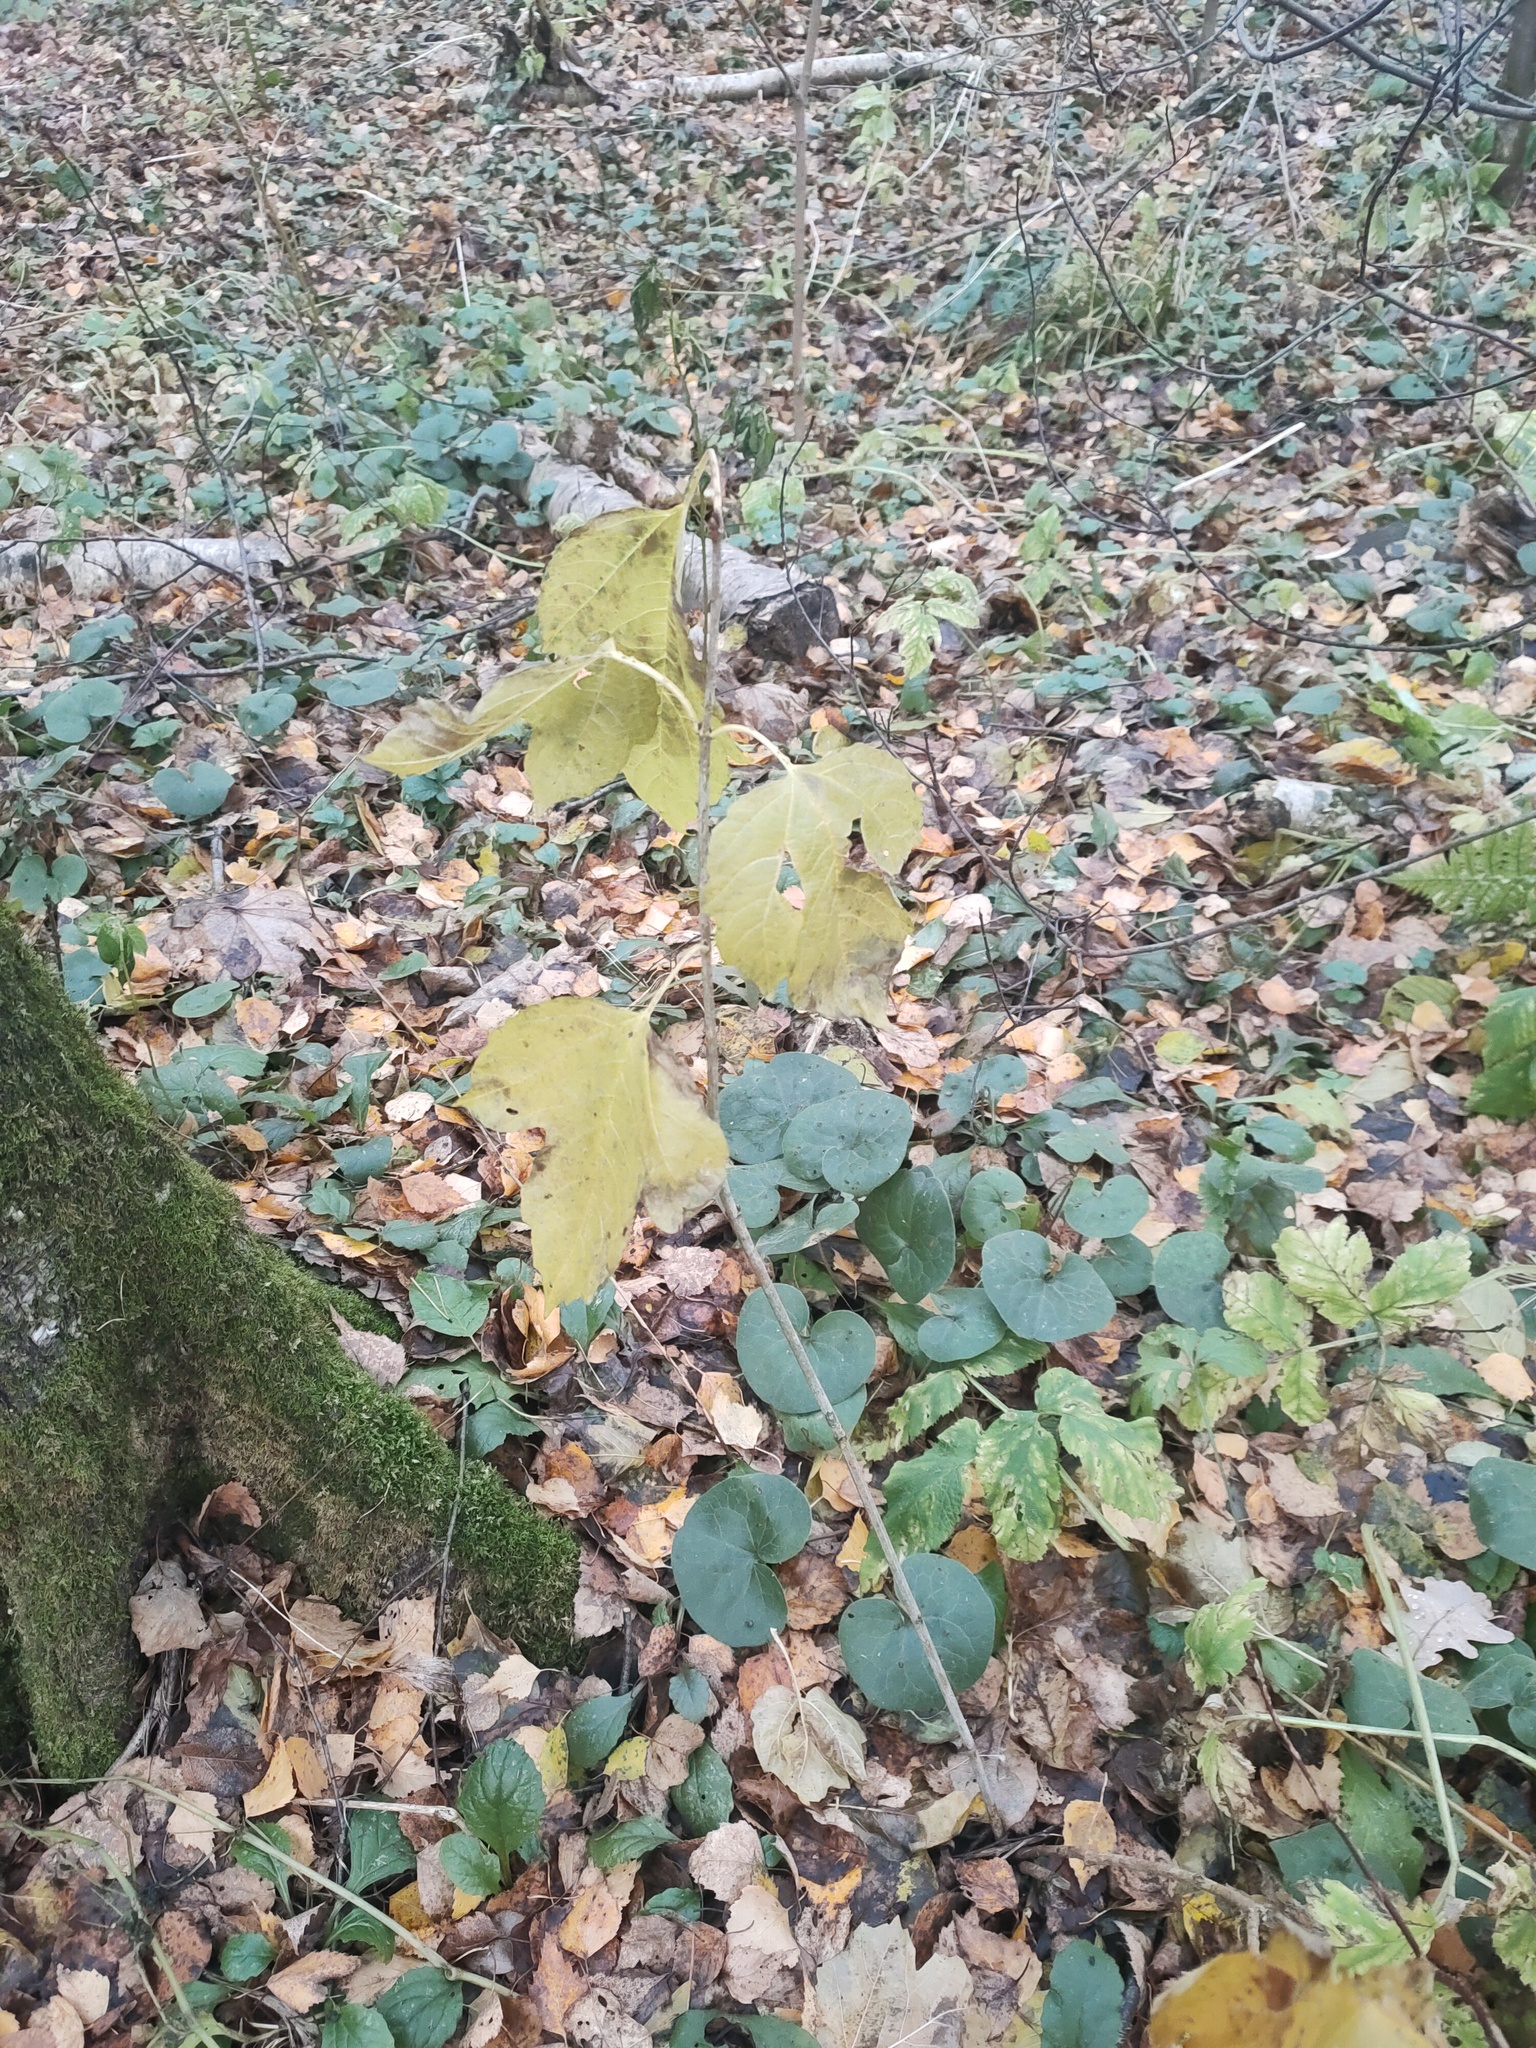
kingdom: Plantae
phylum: Tracheophyta
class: Magnoliopsida
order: Dipsacales
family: Viburnaceae
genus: Viburnum
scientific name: Viburnum opulus
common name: Guelder-rose
